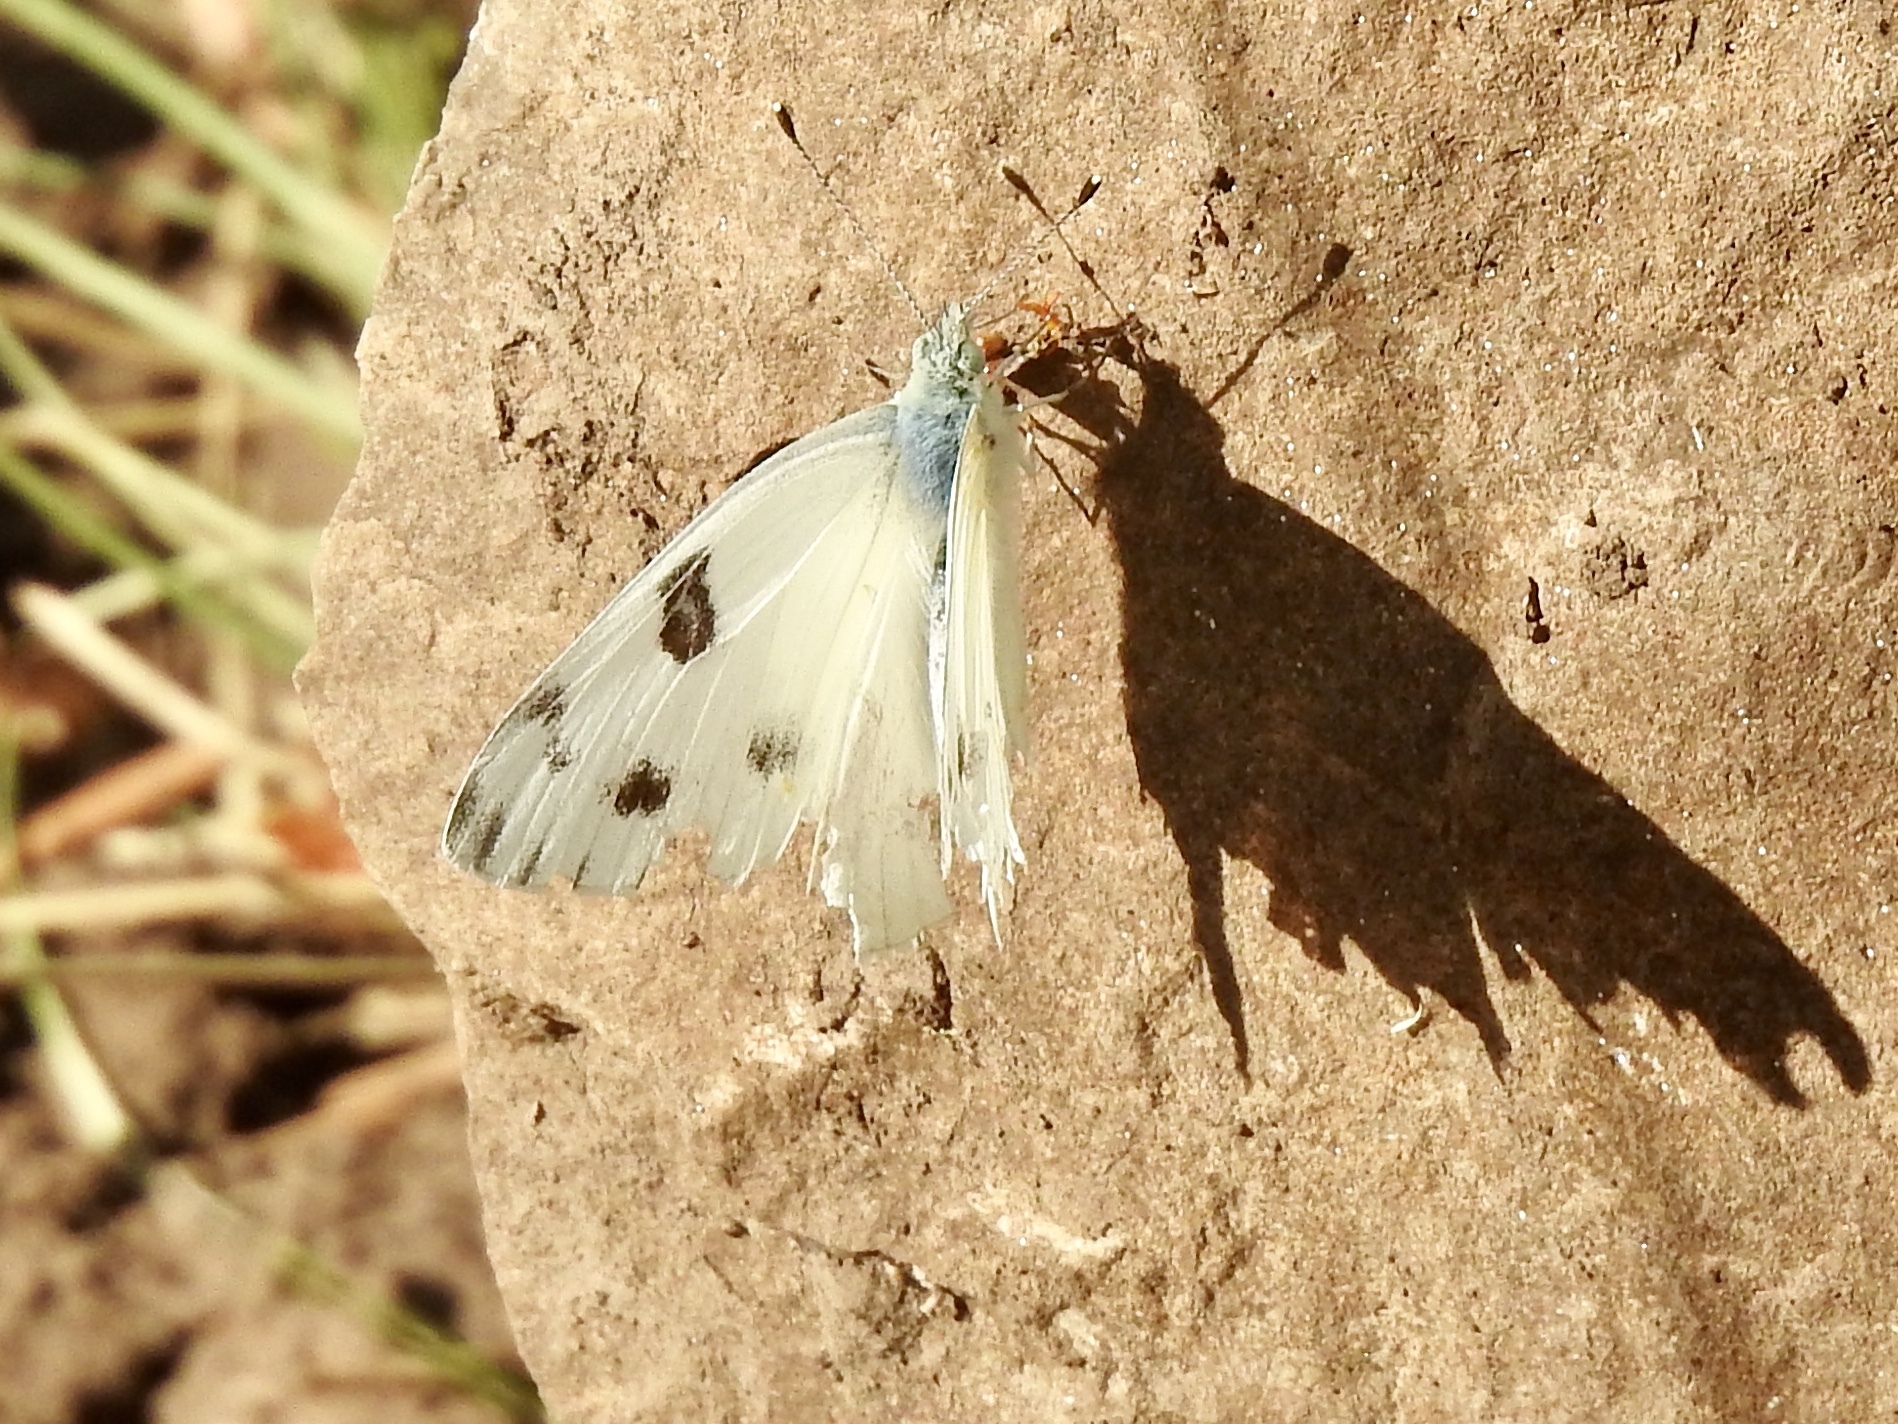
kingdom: Animalia
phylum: Arthropoda
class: Insecta
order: Lepidoptera
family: Pieridae
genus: Pontia
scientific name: Pontia protodice
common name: Checkered white
